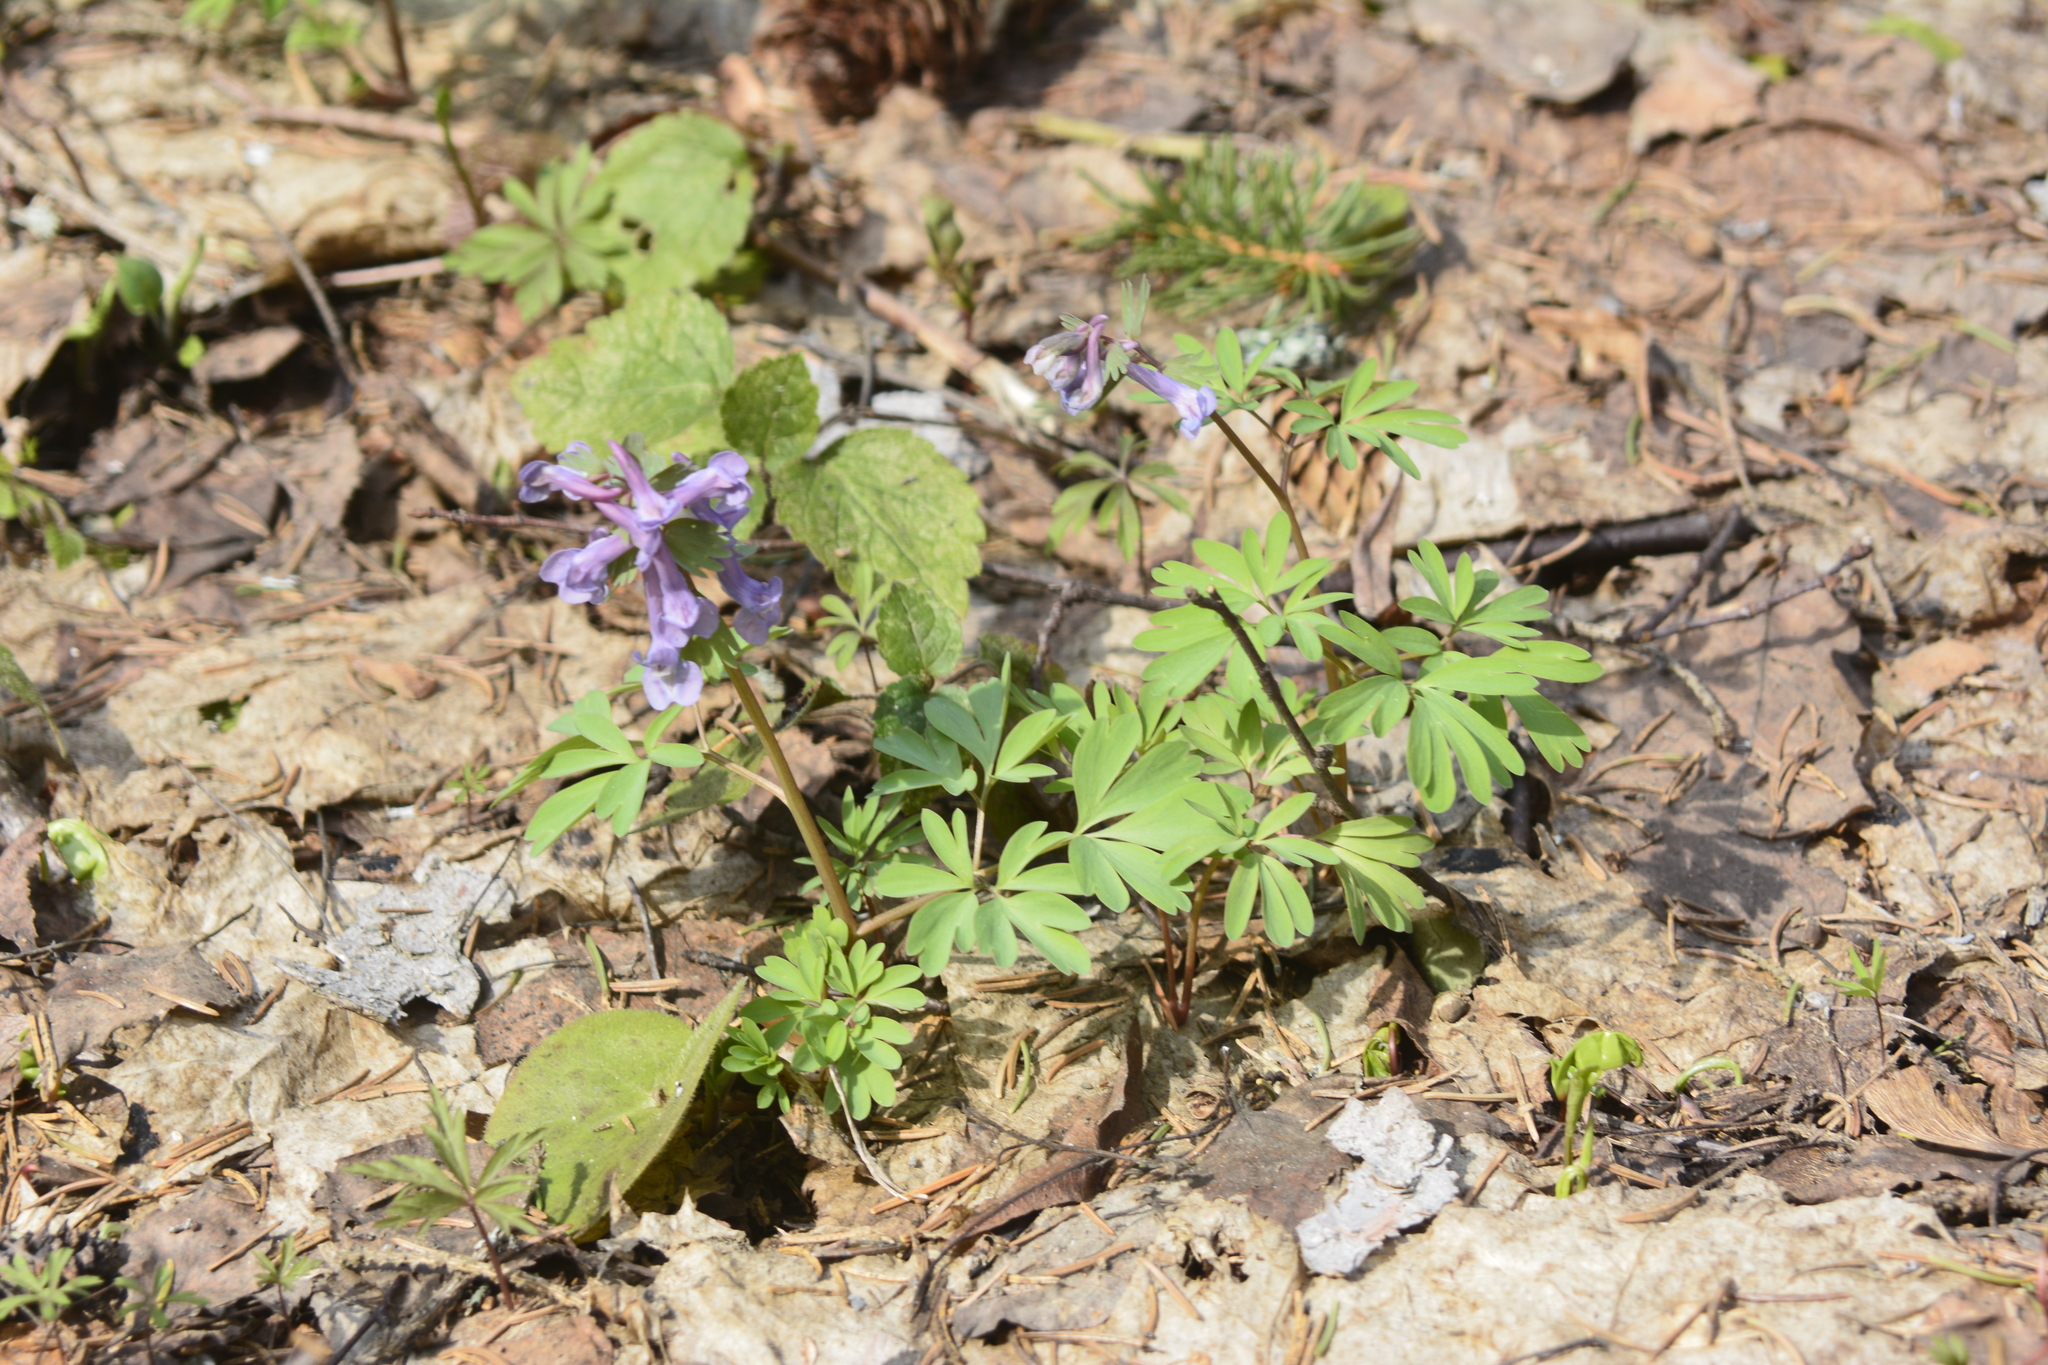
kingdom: Plantae
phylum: Tracheophyta
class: Magnoliopsida
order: Ranunculales
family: Papaveraceae
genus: Corydalis
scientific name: Corydalis solida
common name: Bird-in-a-bush
